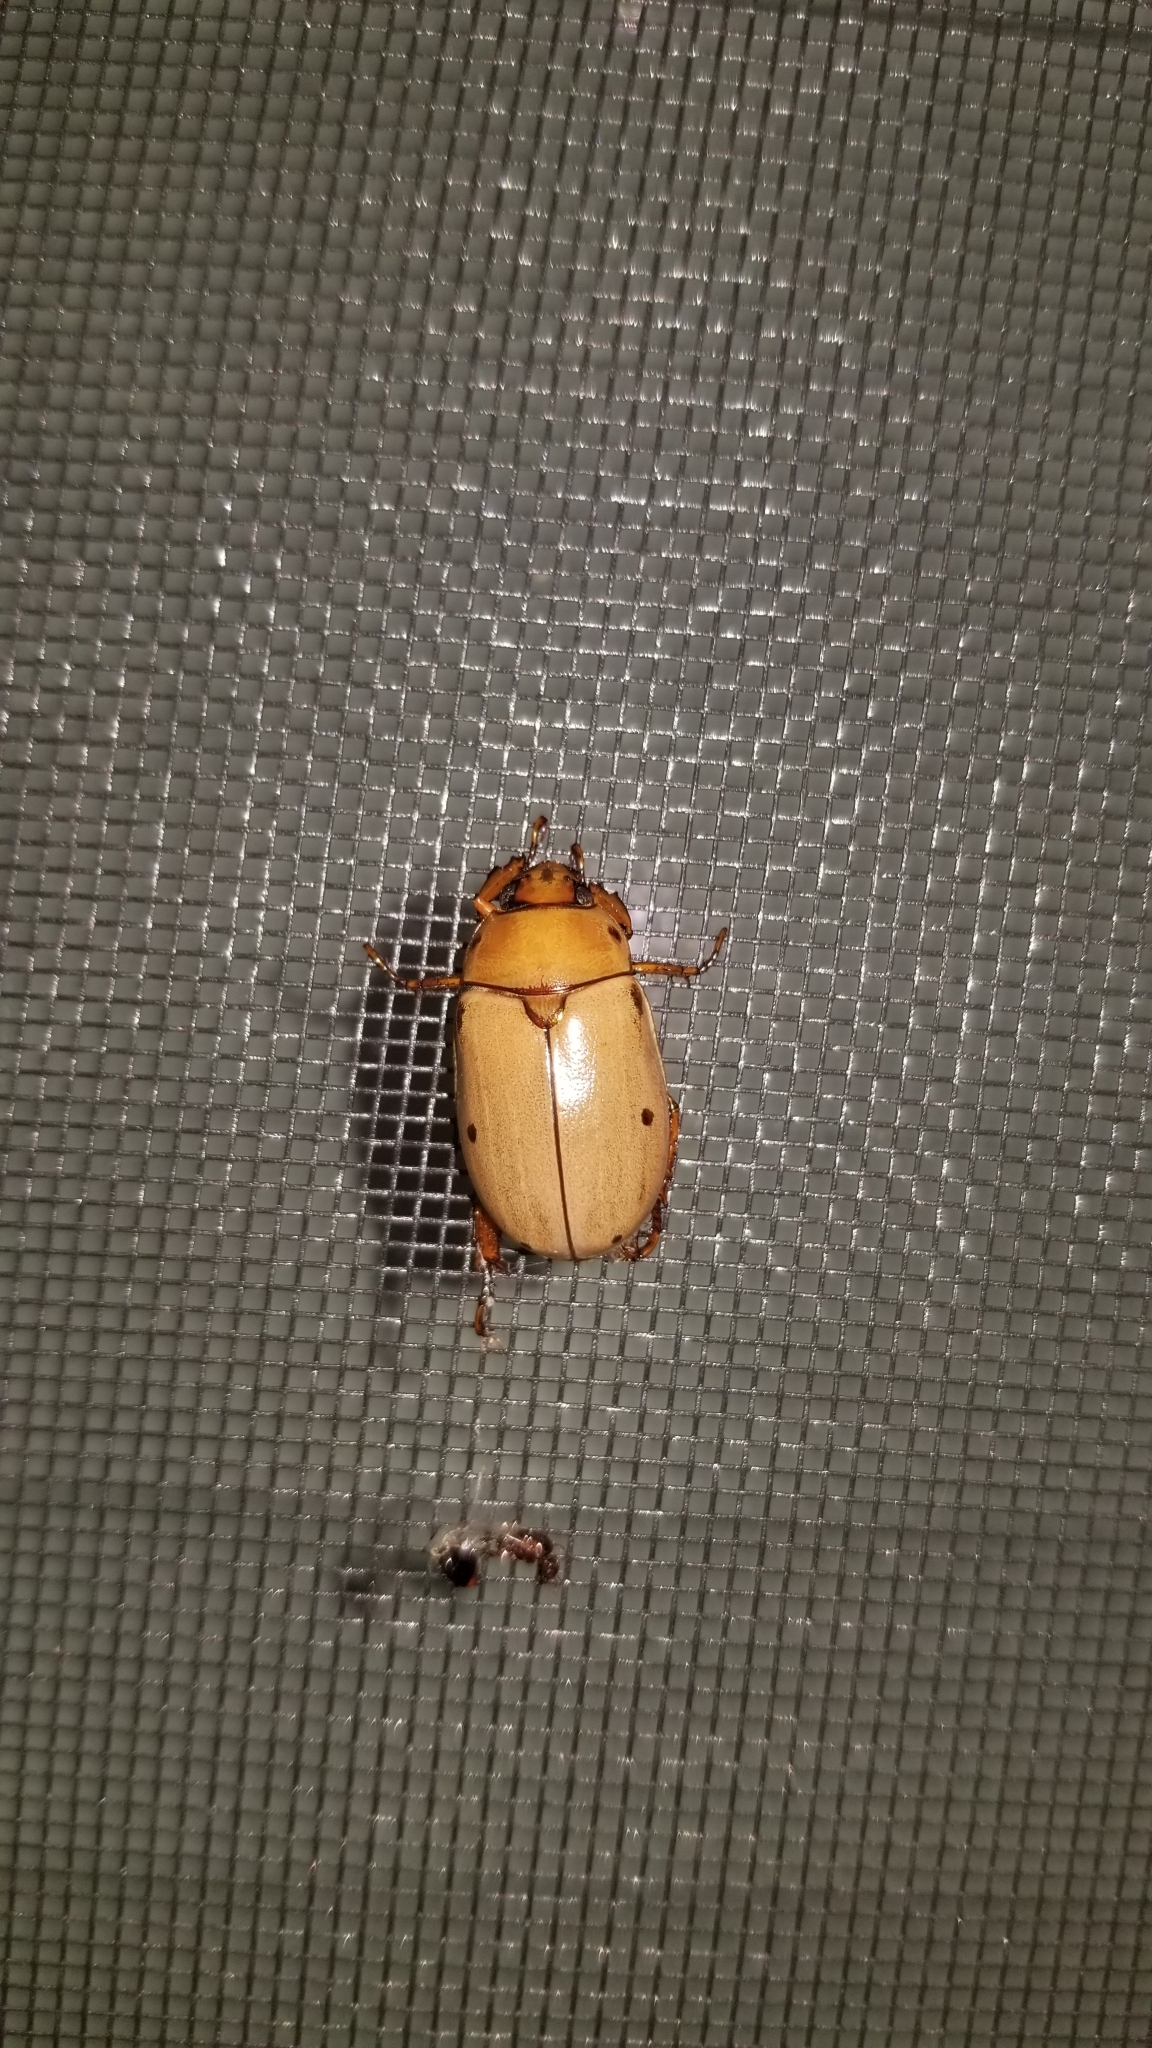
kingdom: Animalia
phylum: Arthropoda
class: Insecta
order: Coleoptera
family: Scarabaeidae
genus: Pelidnota
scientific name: Pelidnota punctata
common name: Grapevine beetle
